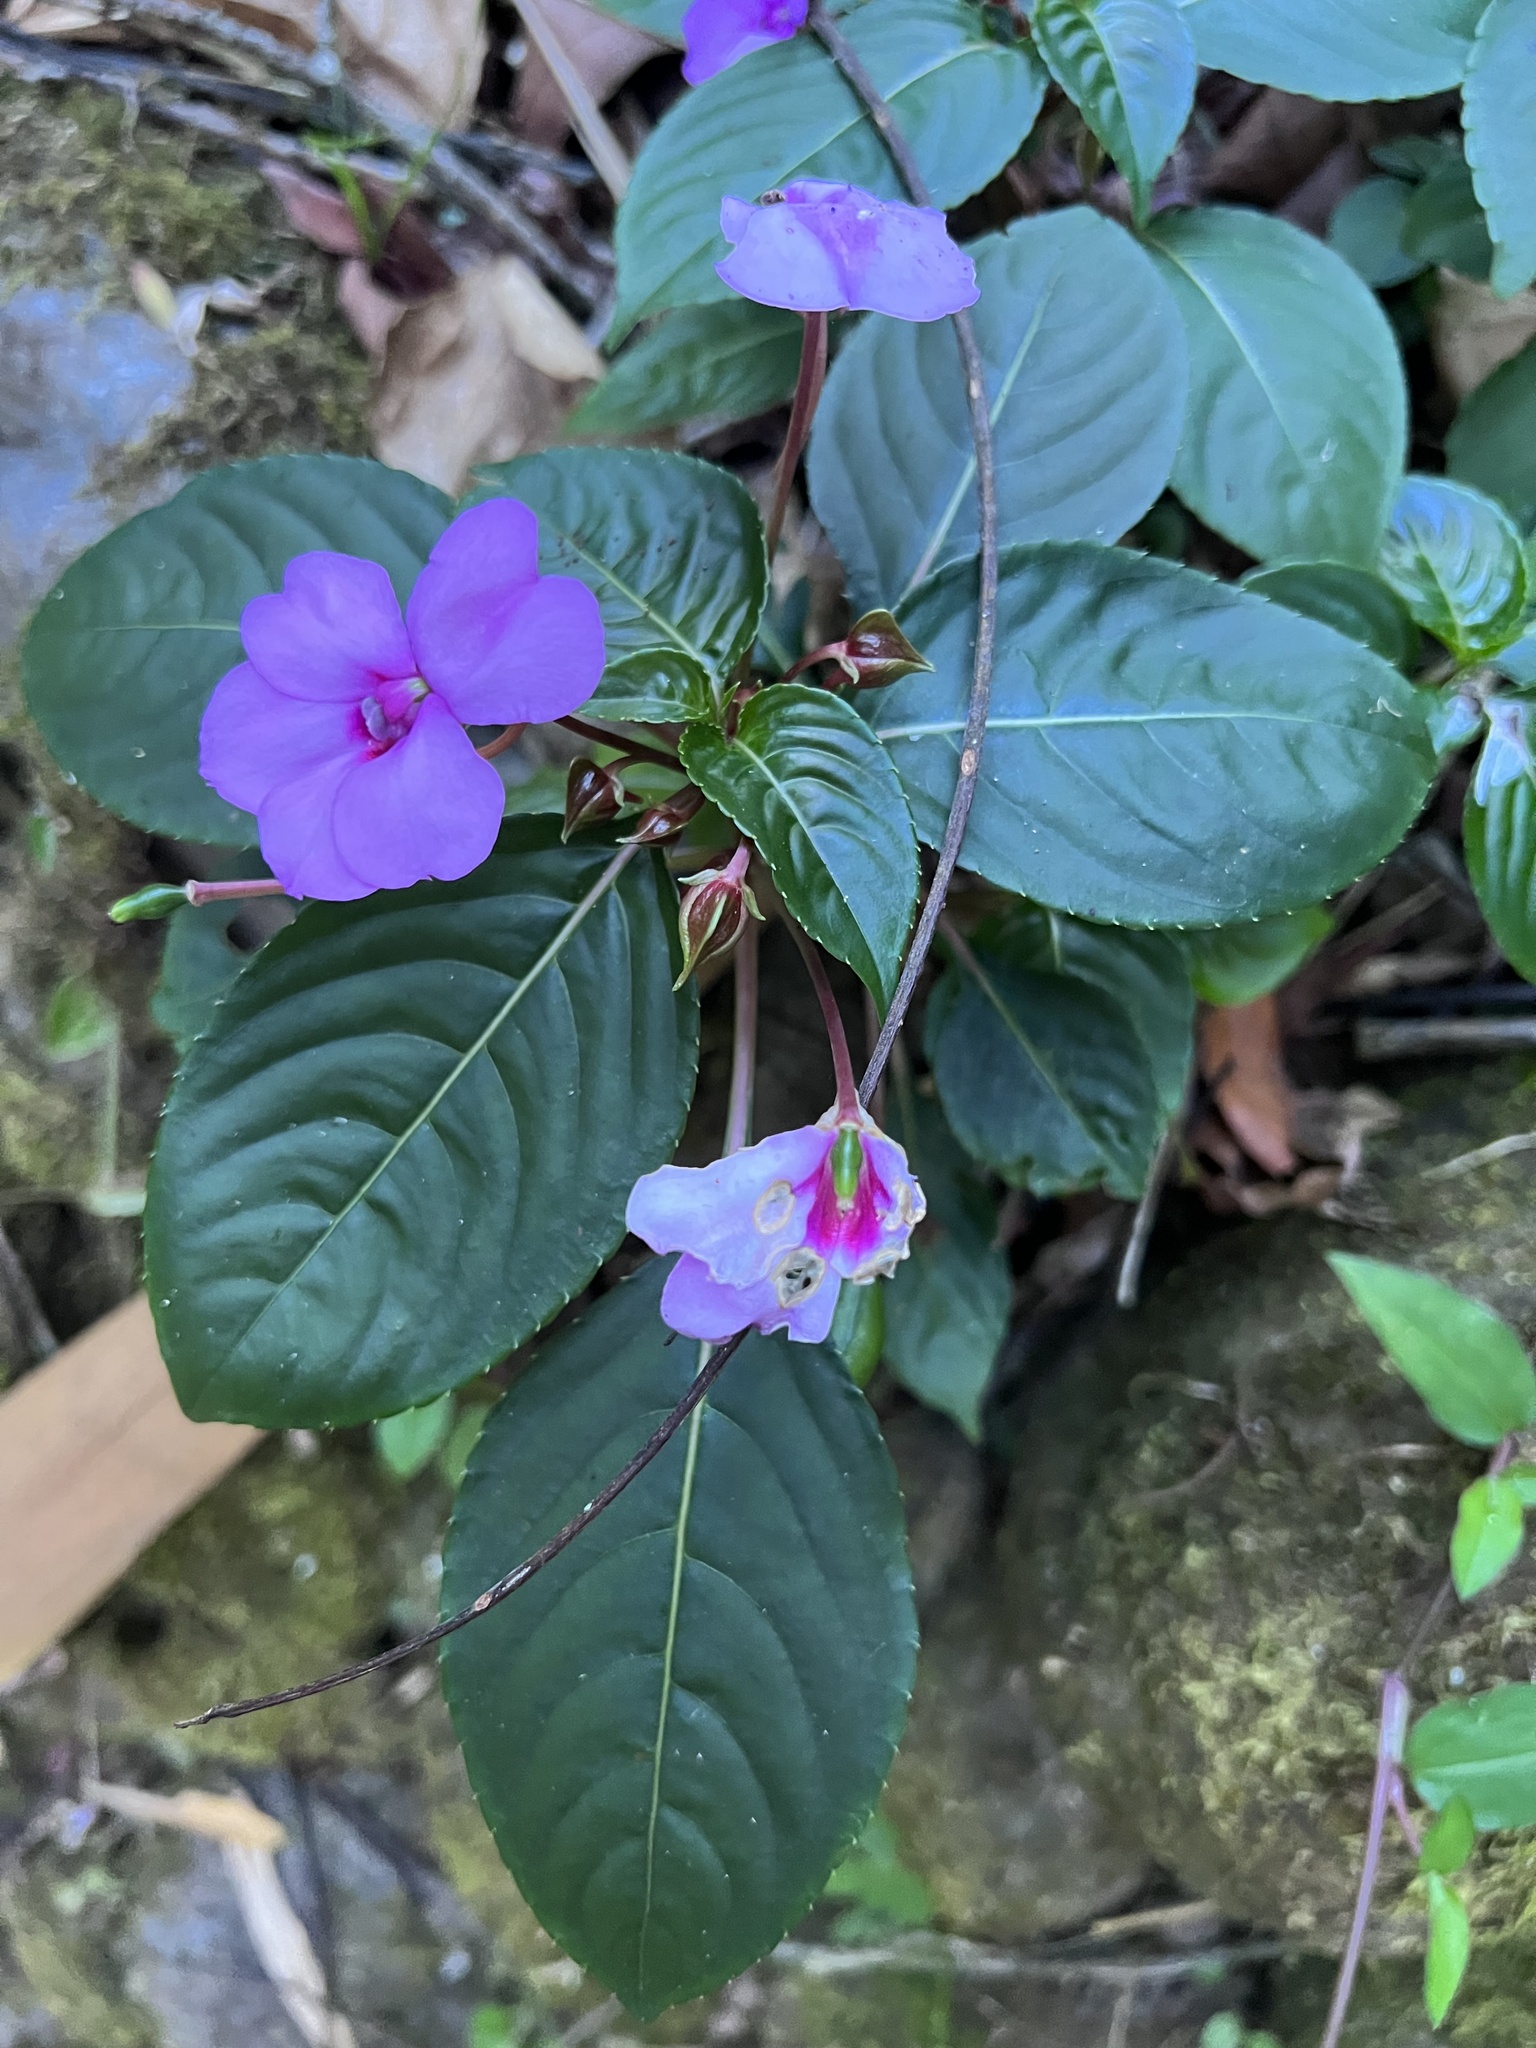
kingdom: Plantae
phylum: Tracheophyta
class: Magnoliopsida
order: Ericales
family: Balsaminaceae
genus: Impatiens
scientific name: Impatiens flaccida
